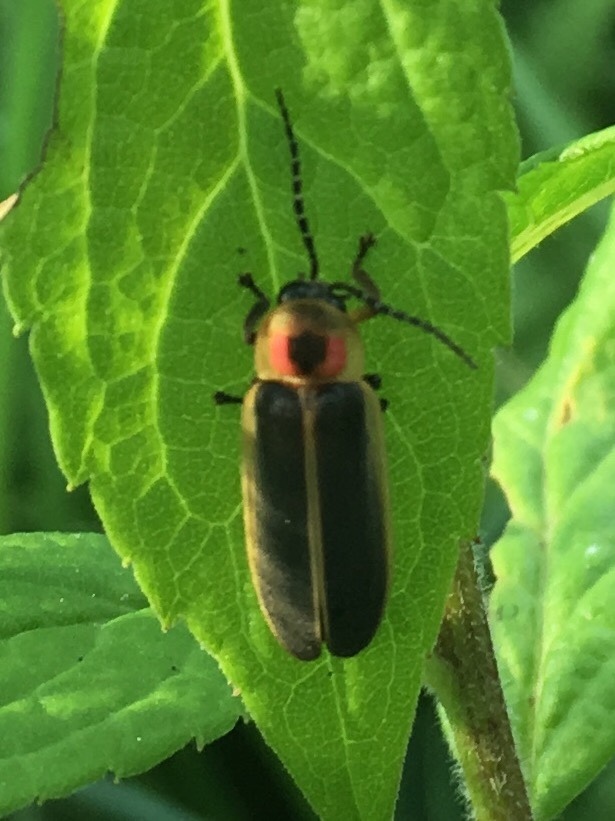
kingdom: Animalia
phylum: Arthropoda
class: Insecta
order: Coleoptera
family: Lampyridae
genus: Photinus
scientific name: Photinus pyralis
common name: Big dipper firefly
